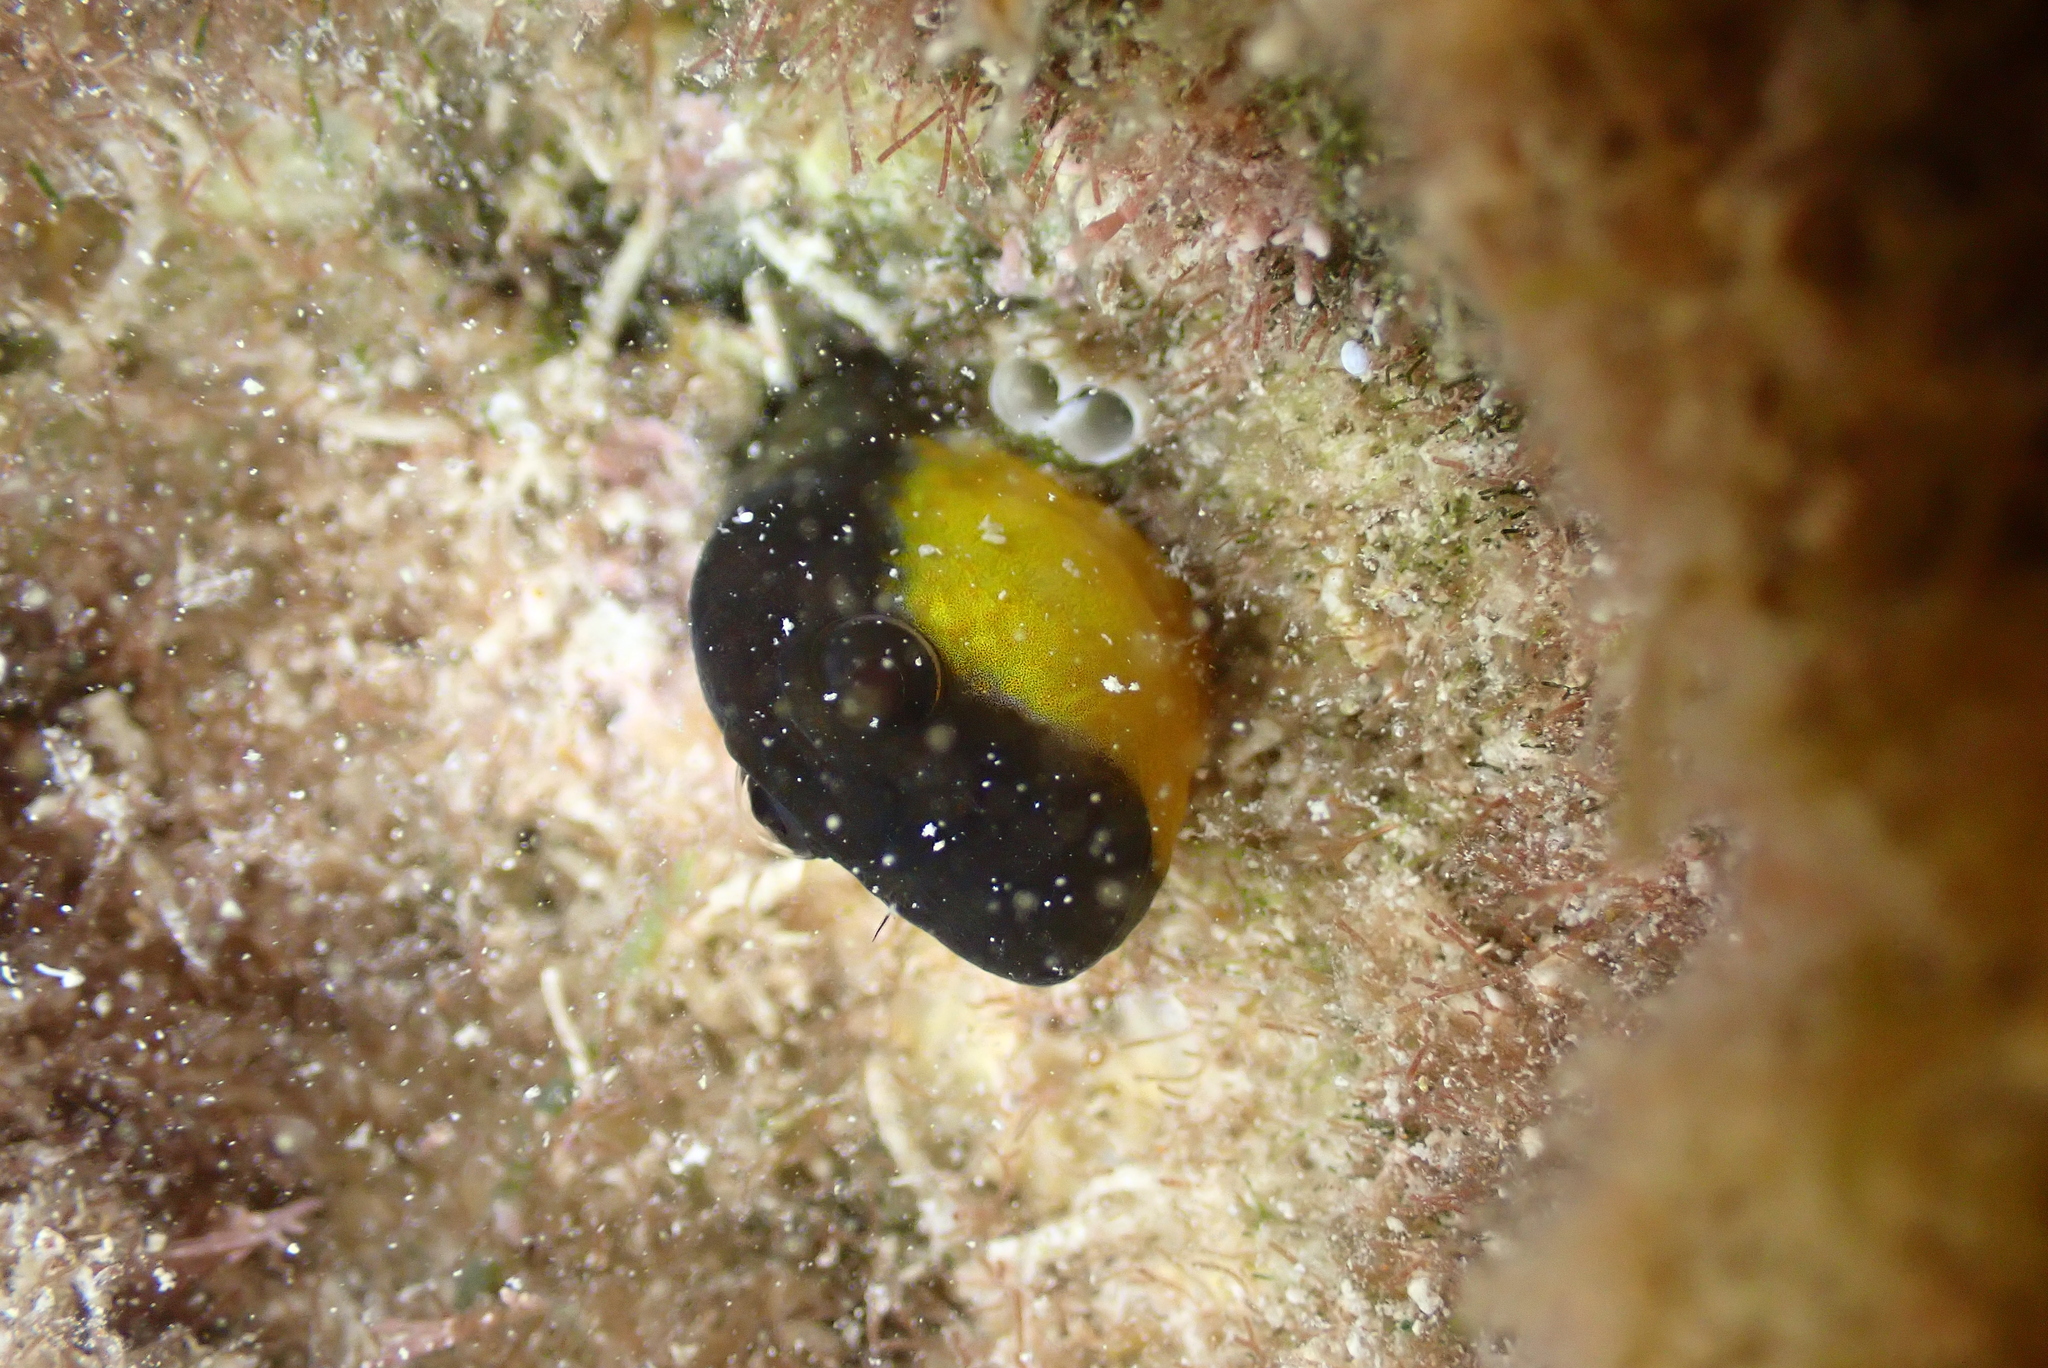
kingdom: Animalia
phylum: Chordata
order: Perciformes
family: Blenniidae
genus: Microlipophrys
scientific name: Microlipophrys canevae
